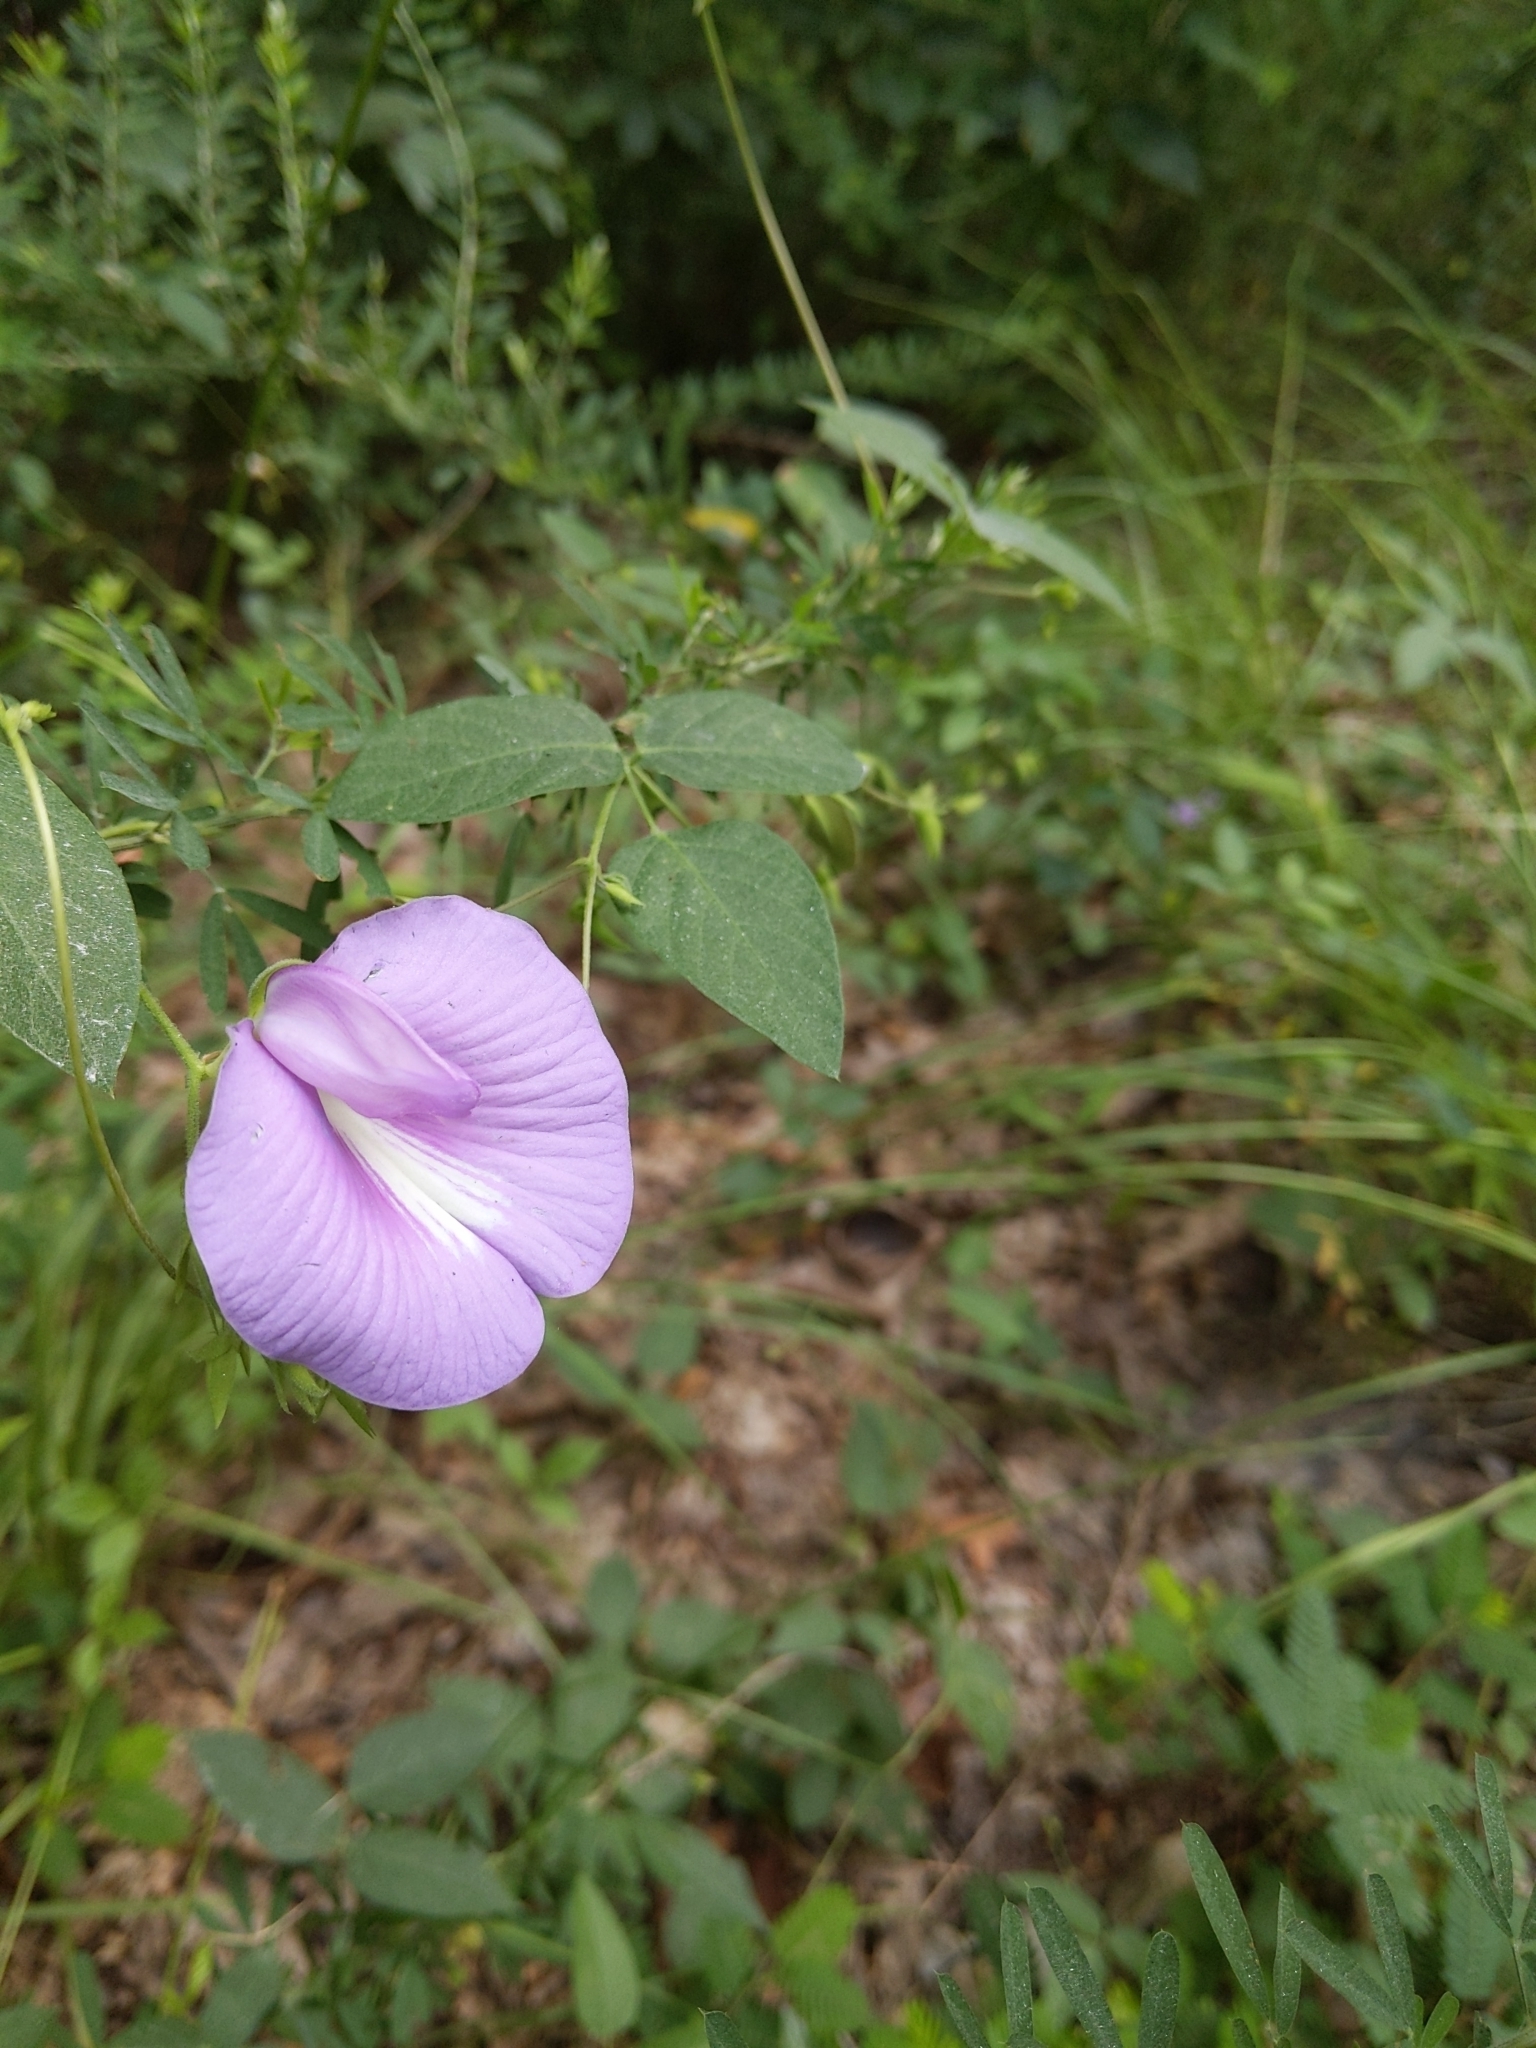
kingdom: Plantae
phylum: Tracheophyta
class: Magnoliopsida
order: Fabales
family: Fabaceae
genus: Centrosema
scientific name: Centrosema virginianum
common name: Butterfly-pea
